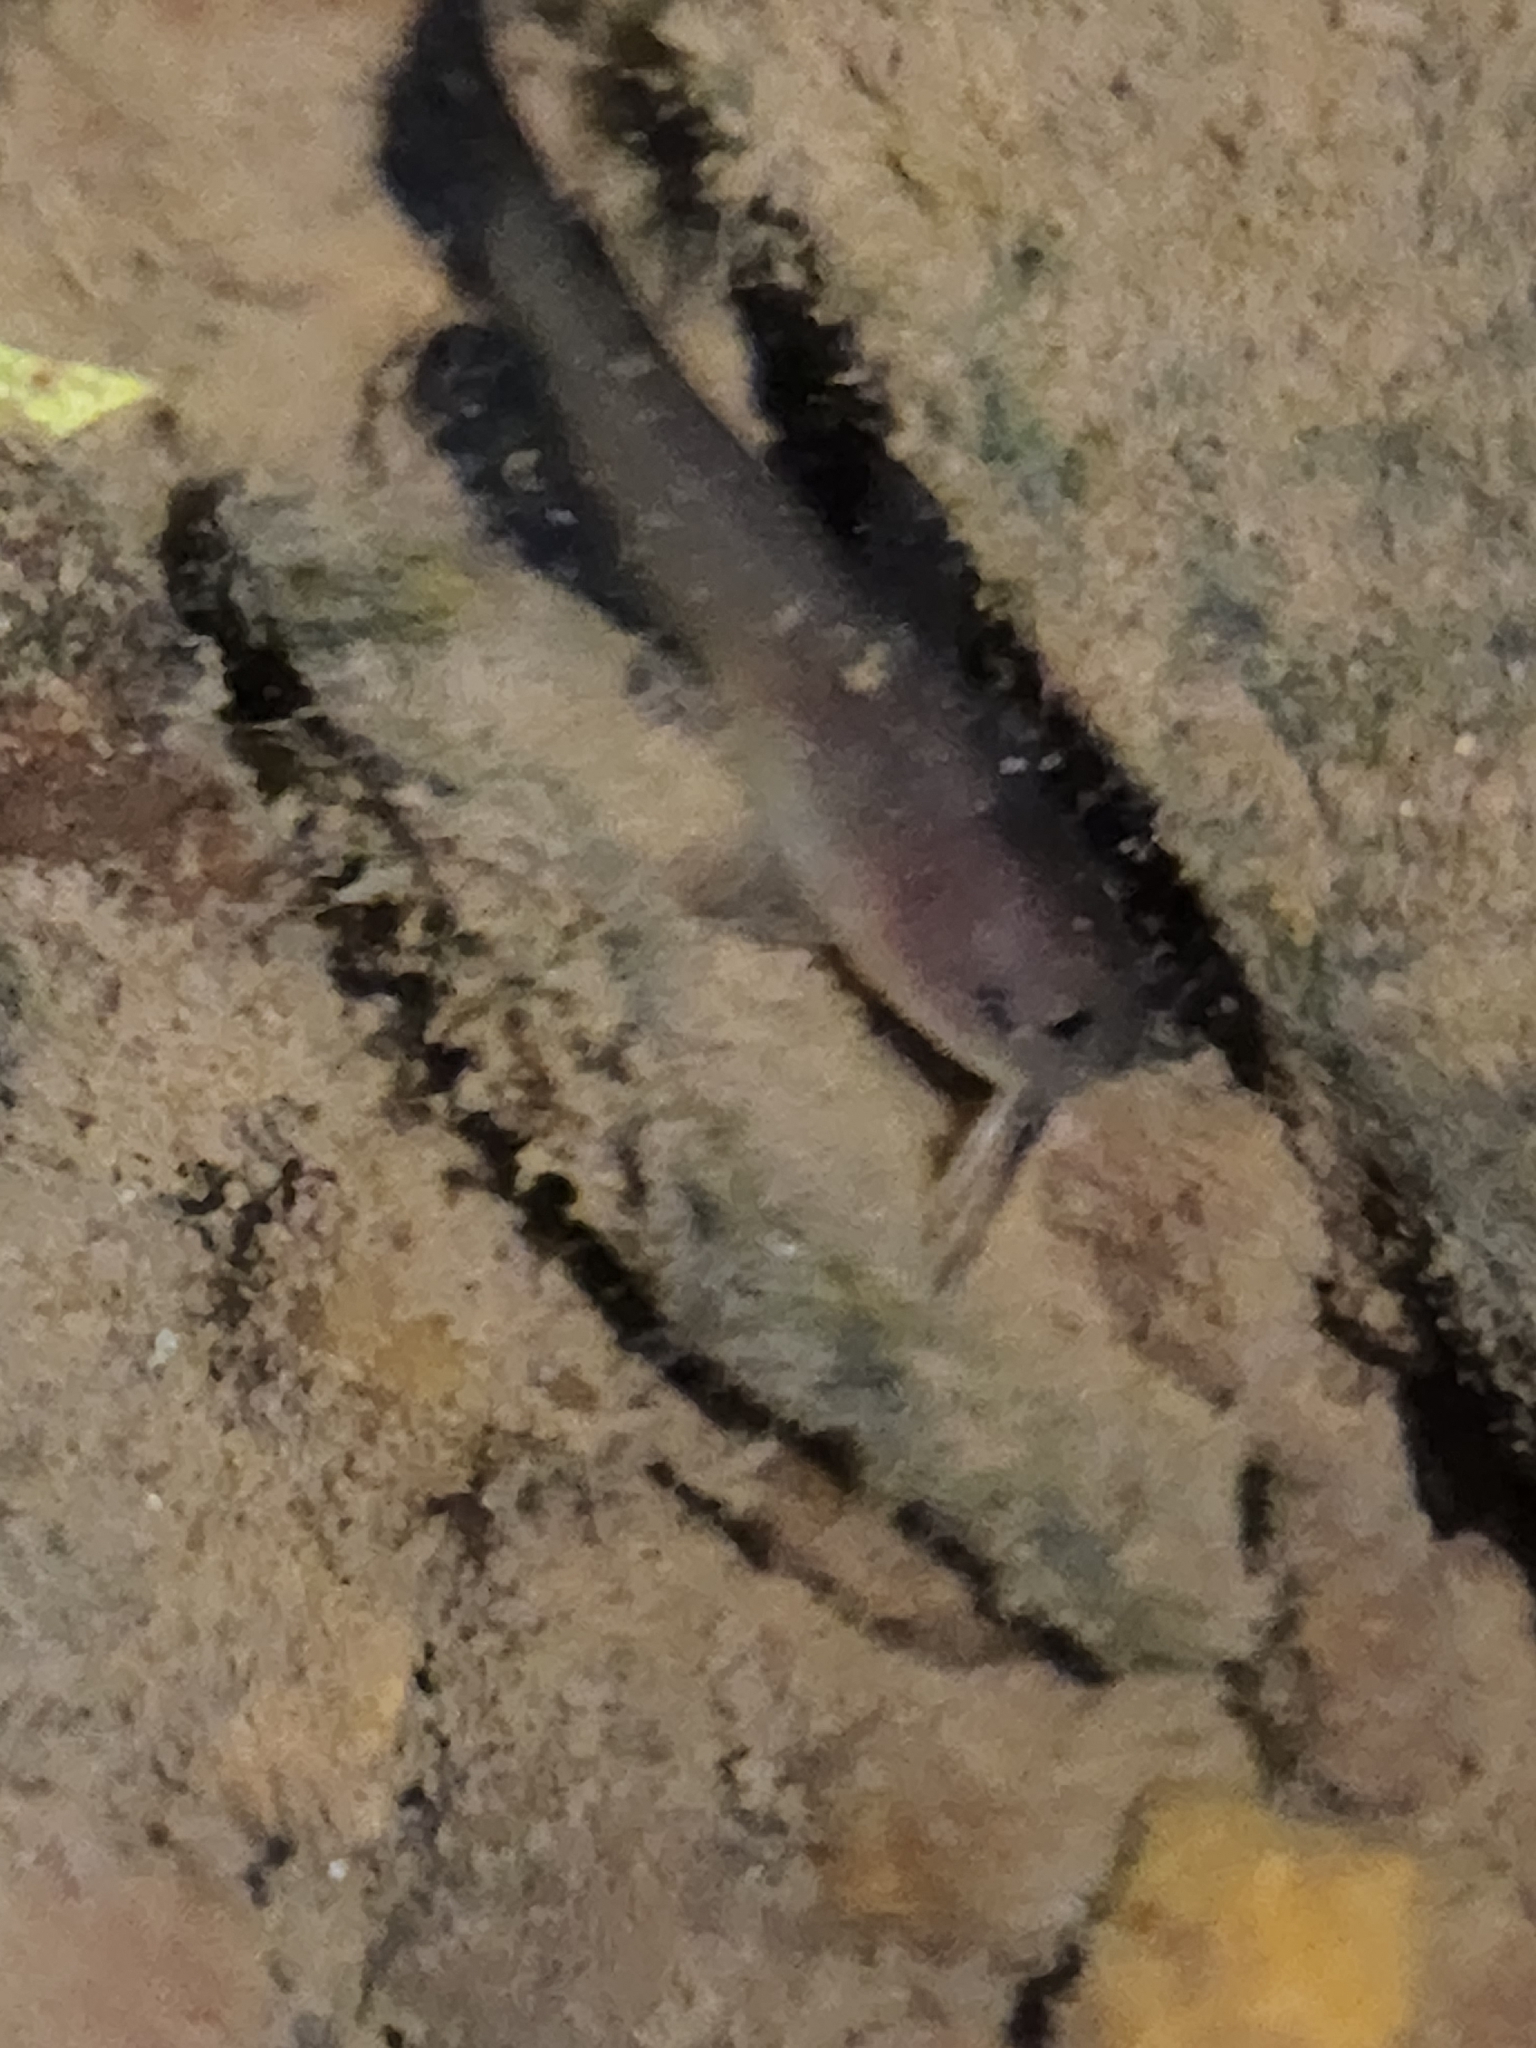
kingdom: Animalia
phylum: Chordata
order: Siluriformes
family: Ictaluridae
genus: Ameiurus
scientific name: Ameiurus natalis
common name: Yellow bullhead
